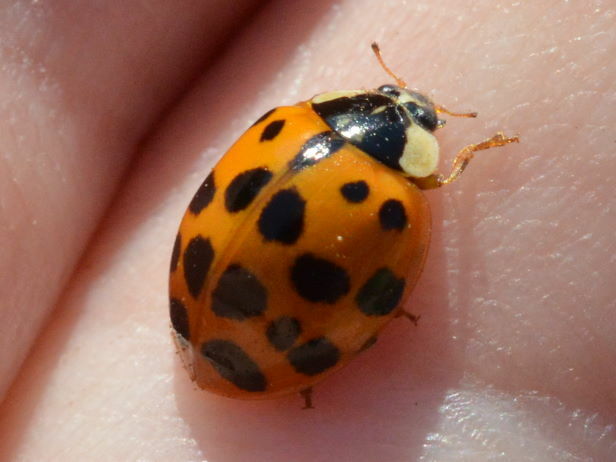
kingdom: Animalia
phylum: Arthropoda
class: Insecta
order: Coleoptera
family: Coccinellidae
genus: Harmonia
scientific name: Harmonia axyridis
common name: Harlequin ladybird
